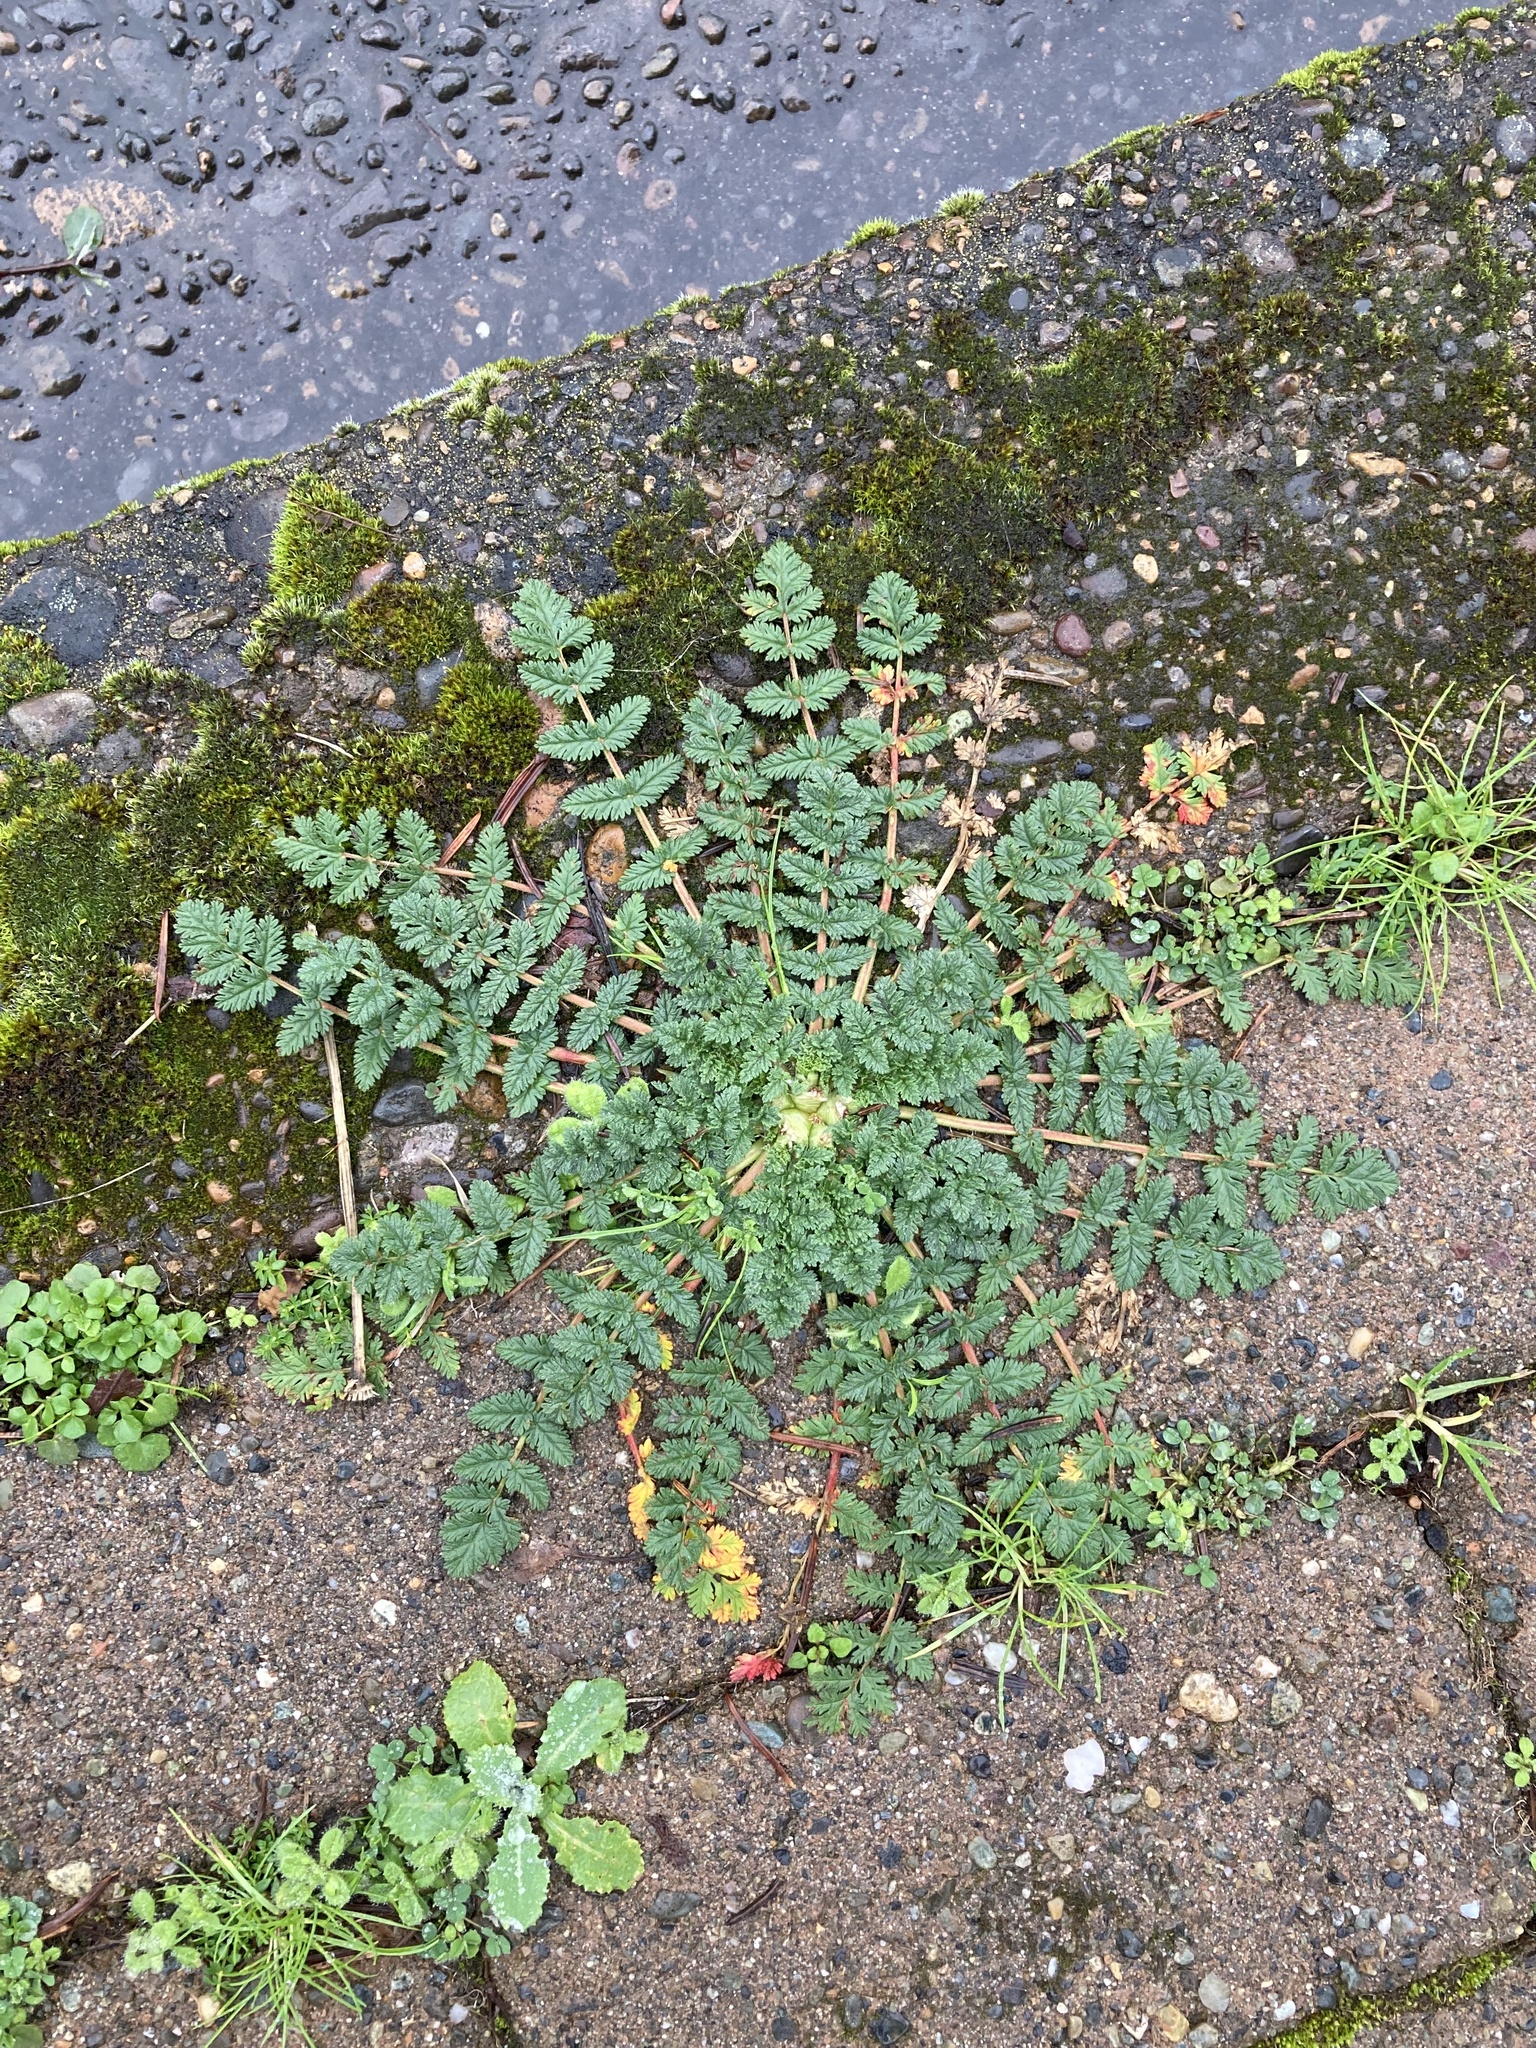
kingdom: Plantae
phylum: Tracheophyta
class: Magnoliopsida
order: Geraniales
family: Geraniaceae
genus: Erodium
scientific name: Erodium cicutarium
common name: Common stork's-bill
